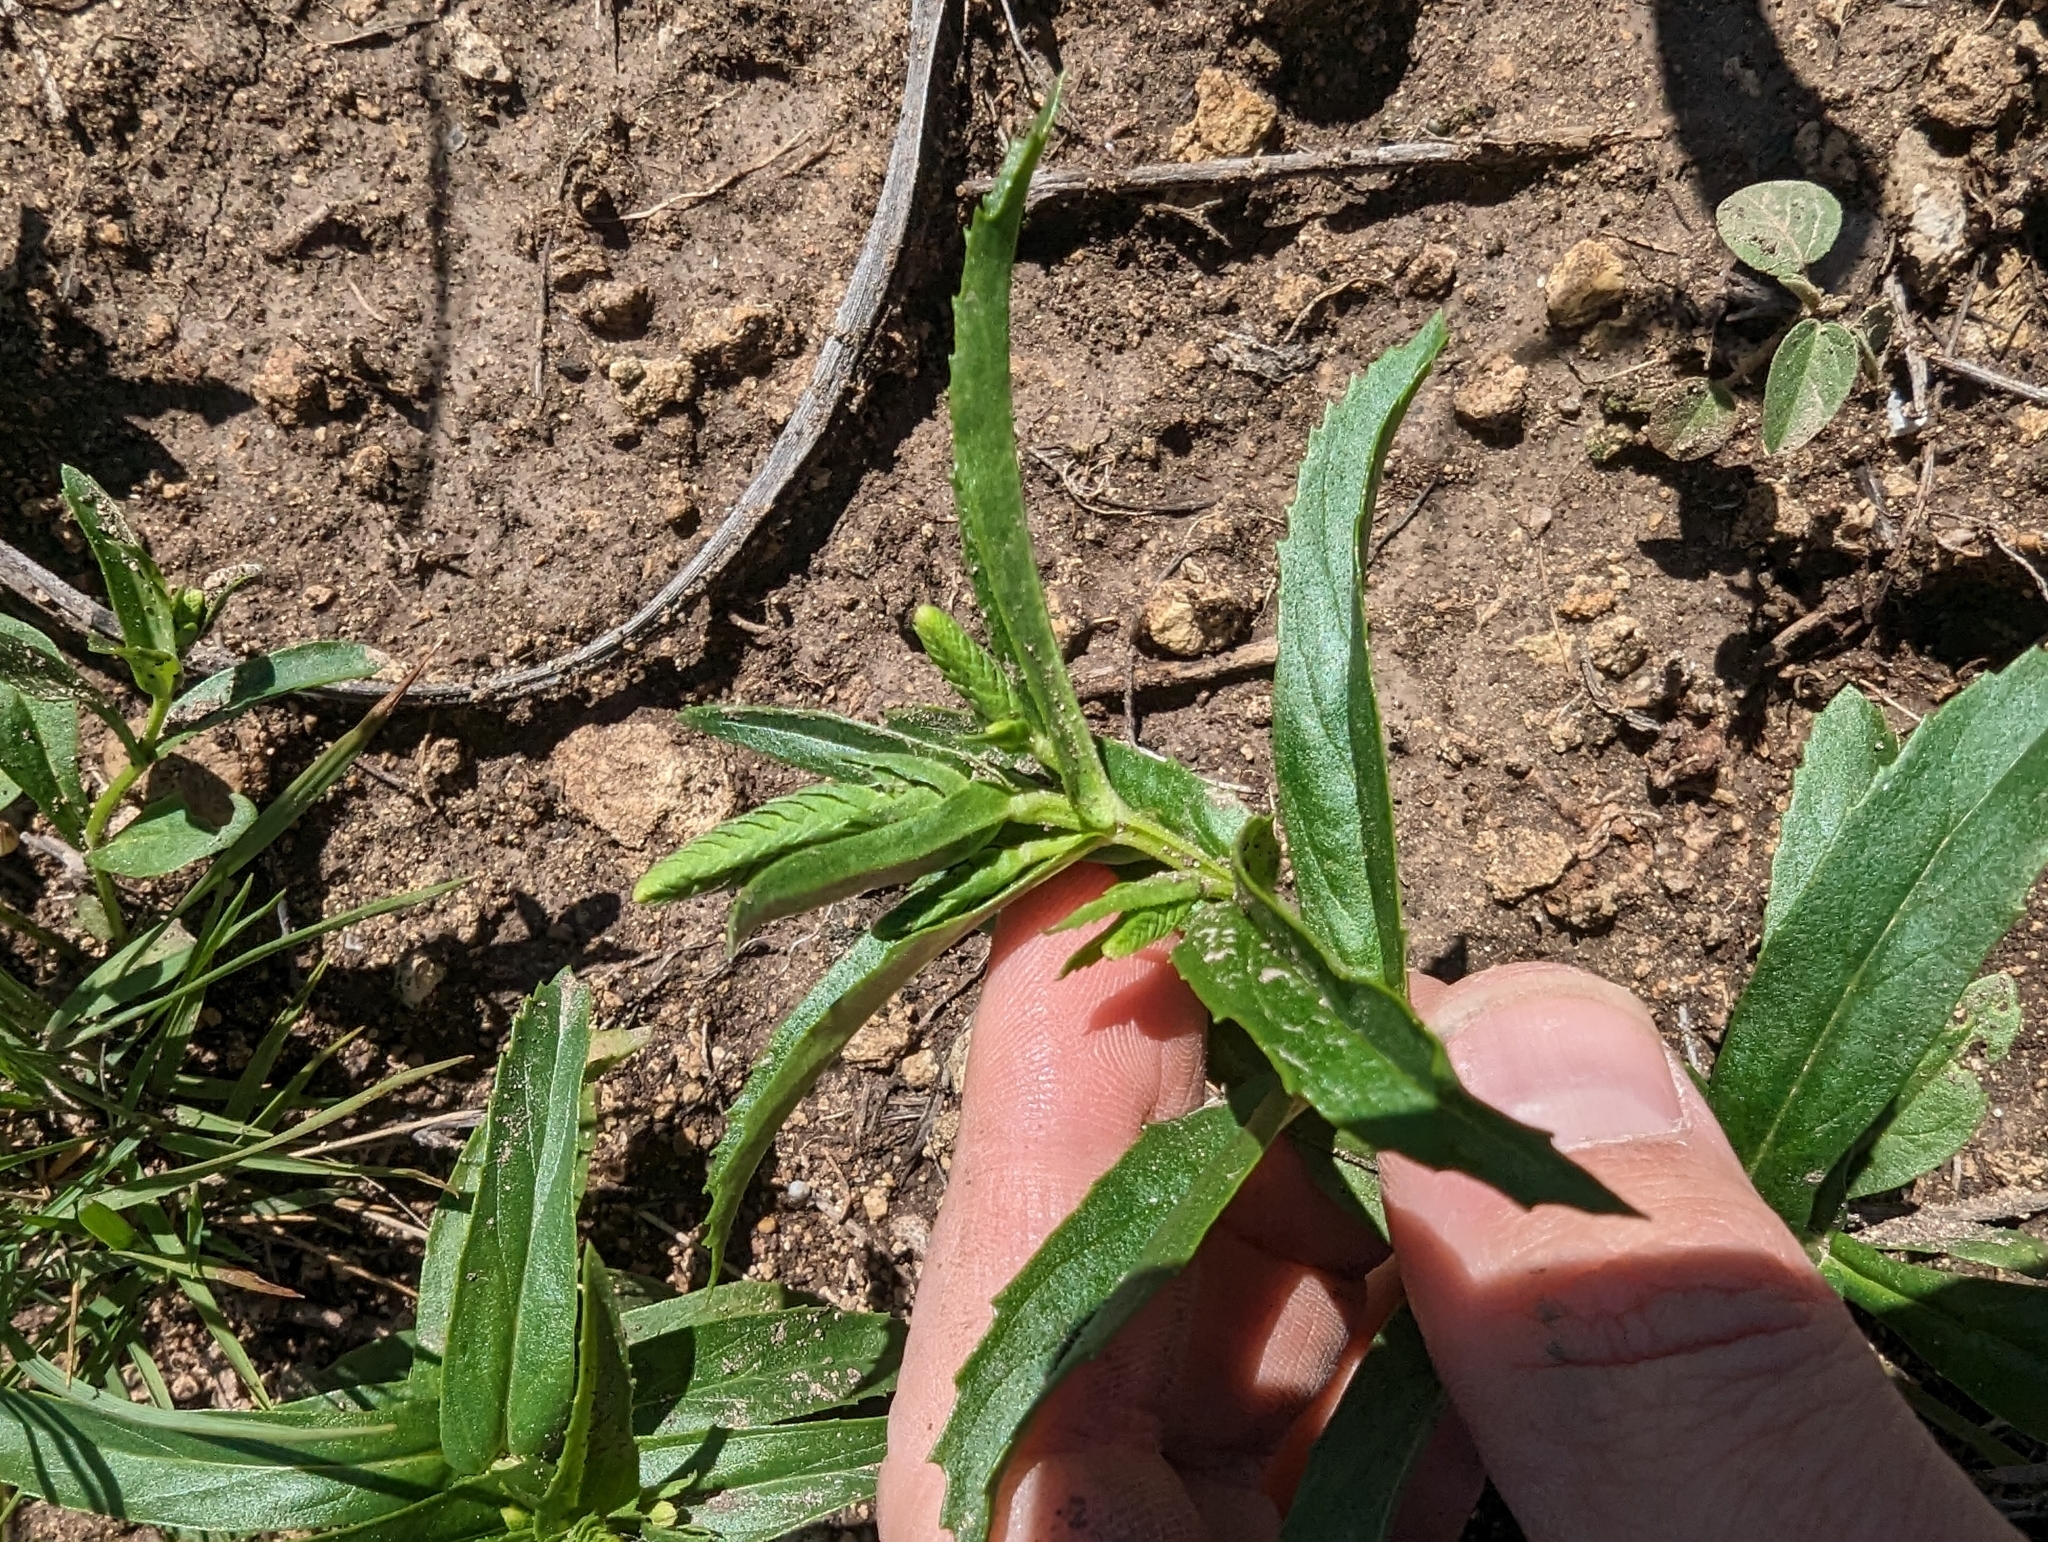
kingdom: Plantae
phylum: Tracheophyta
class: Magnoliopsida
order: Lamiales
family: Lamiaceae
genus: Warnockia
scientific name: Warnockia scutellarioides
